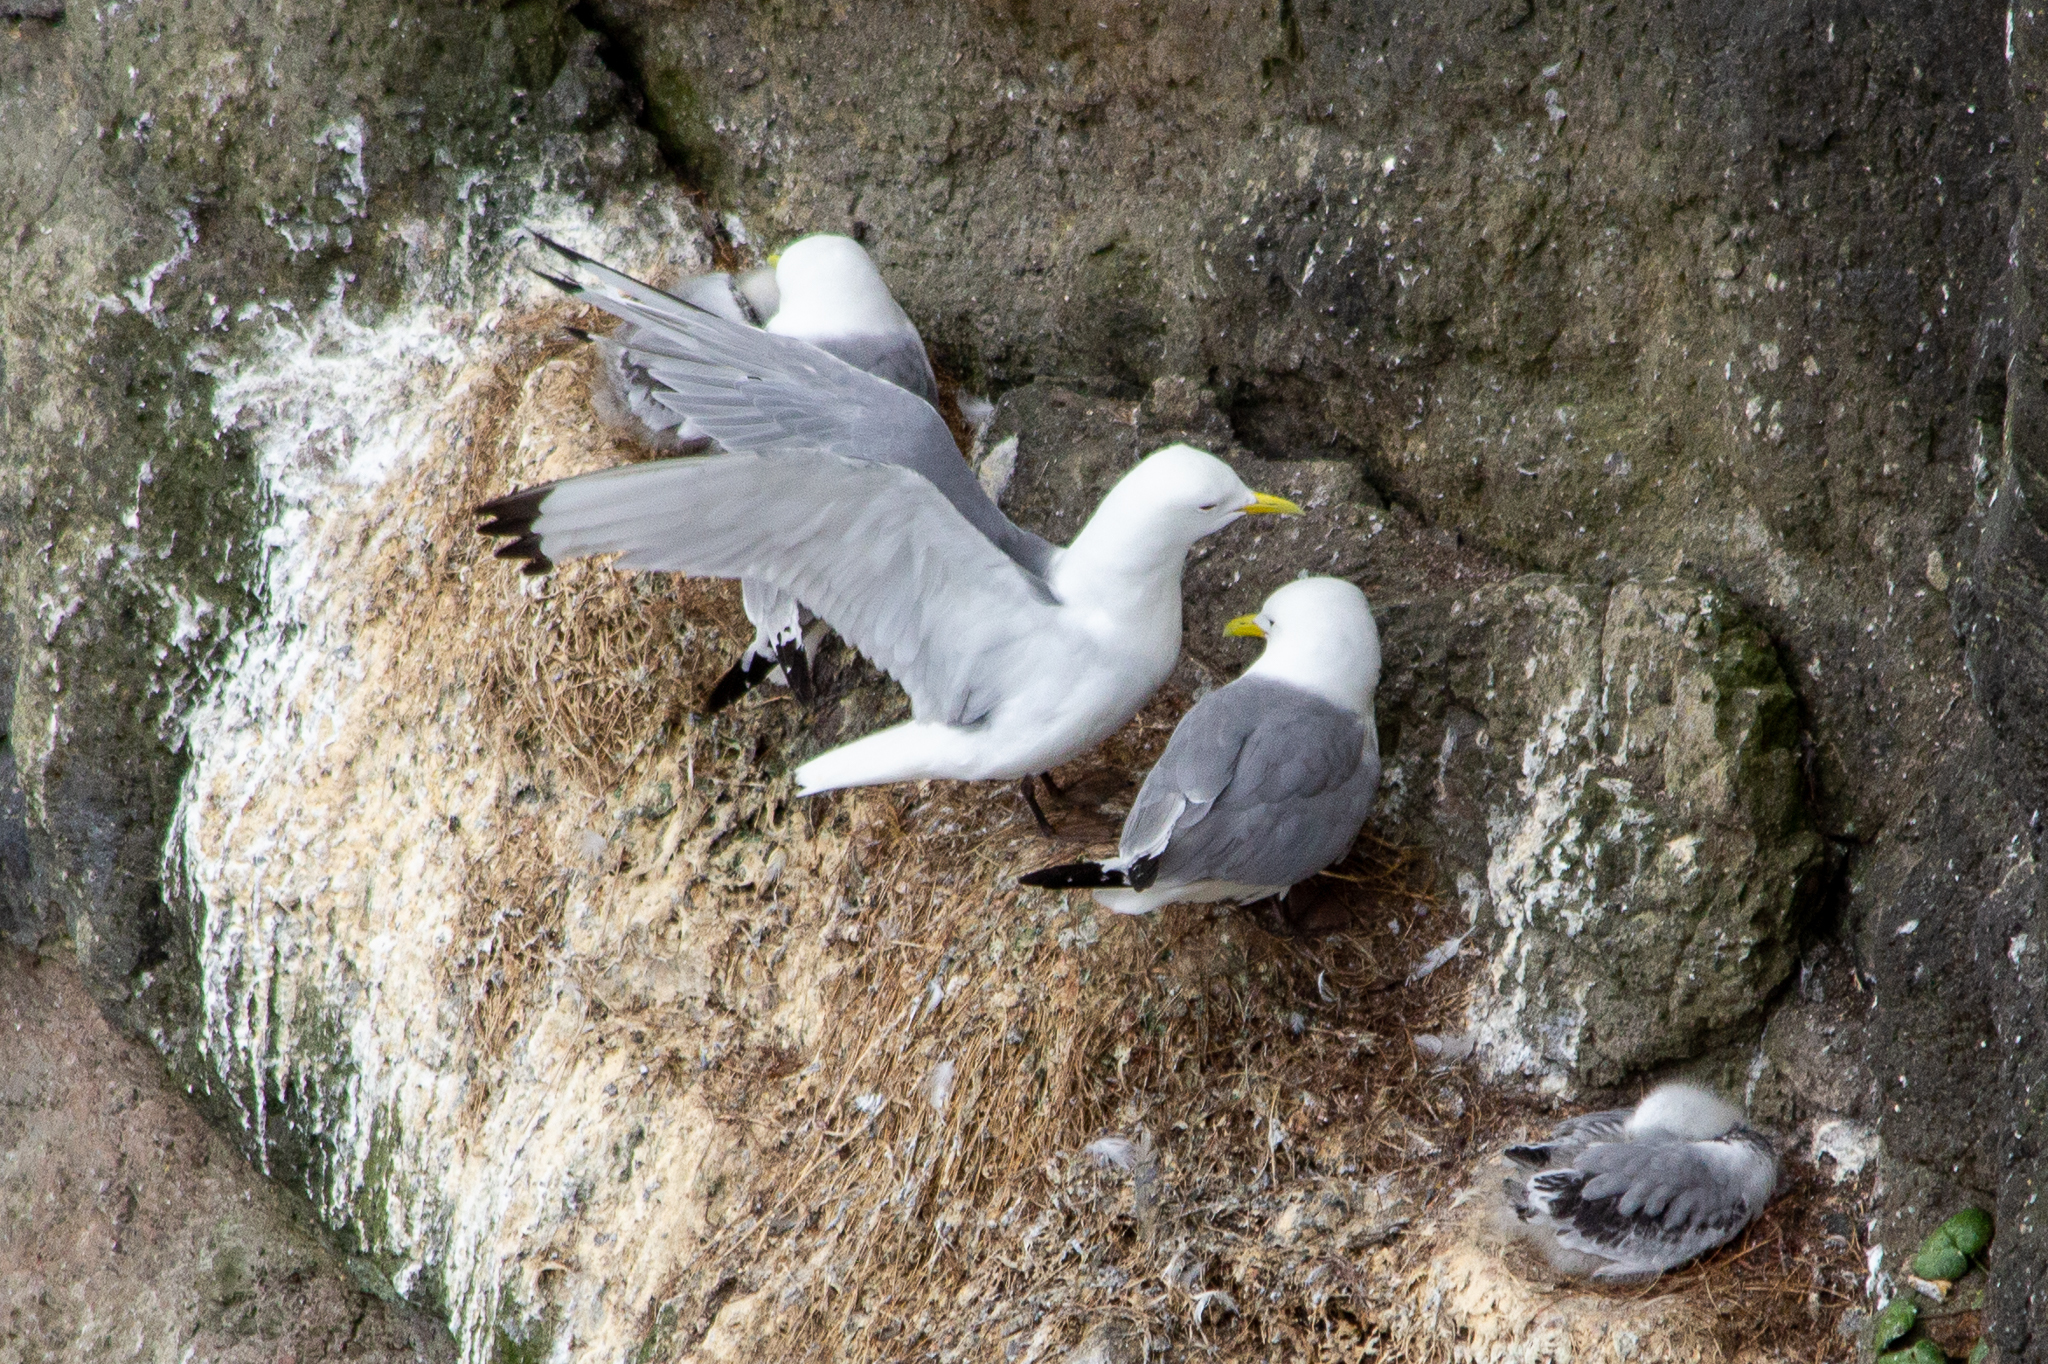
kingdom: Animalia
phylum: Chordata
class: Aves
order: Charadriiformes
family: Laridae
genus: Rissa
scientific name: Rissa tridactyla
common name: Black-legged kittiwake
